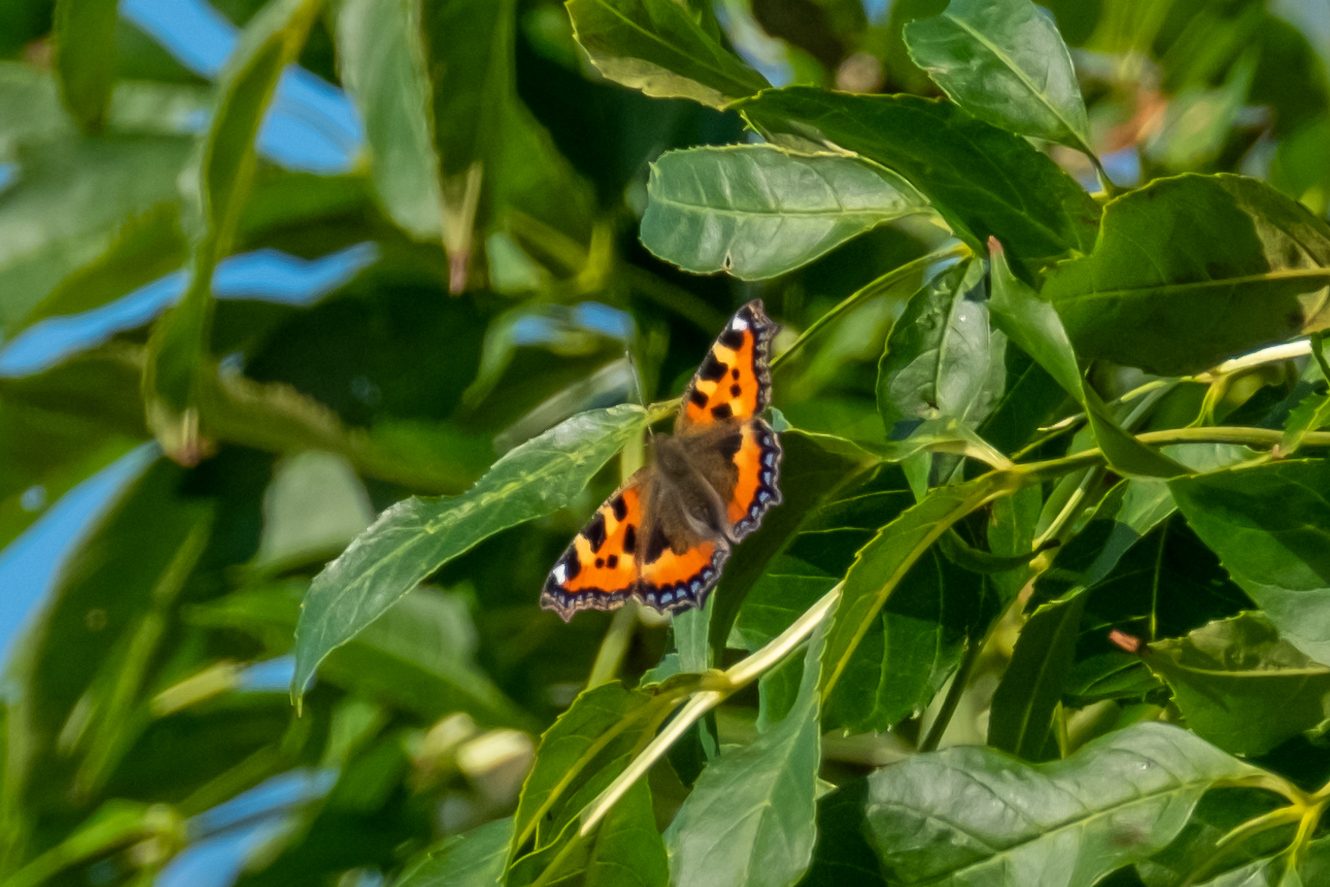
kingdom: Animalia
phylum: Arthropoda
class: Insecta
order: Lepidoptera
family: Nymphalidae
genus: Aglais
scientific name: Aglais urticae
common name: Small tortoiseshell
